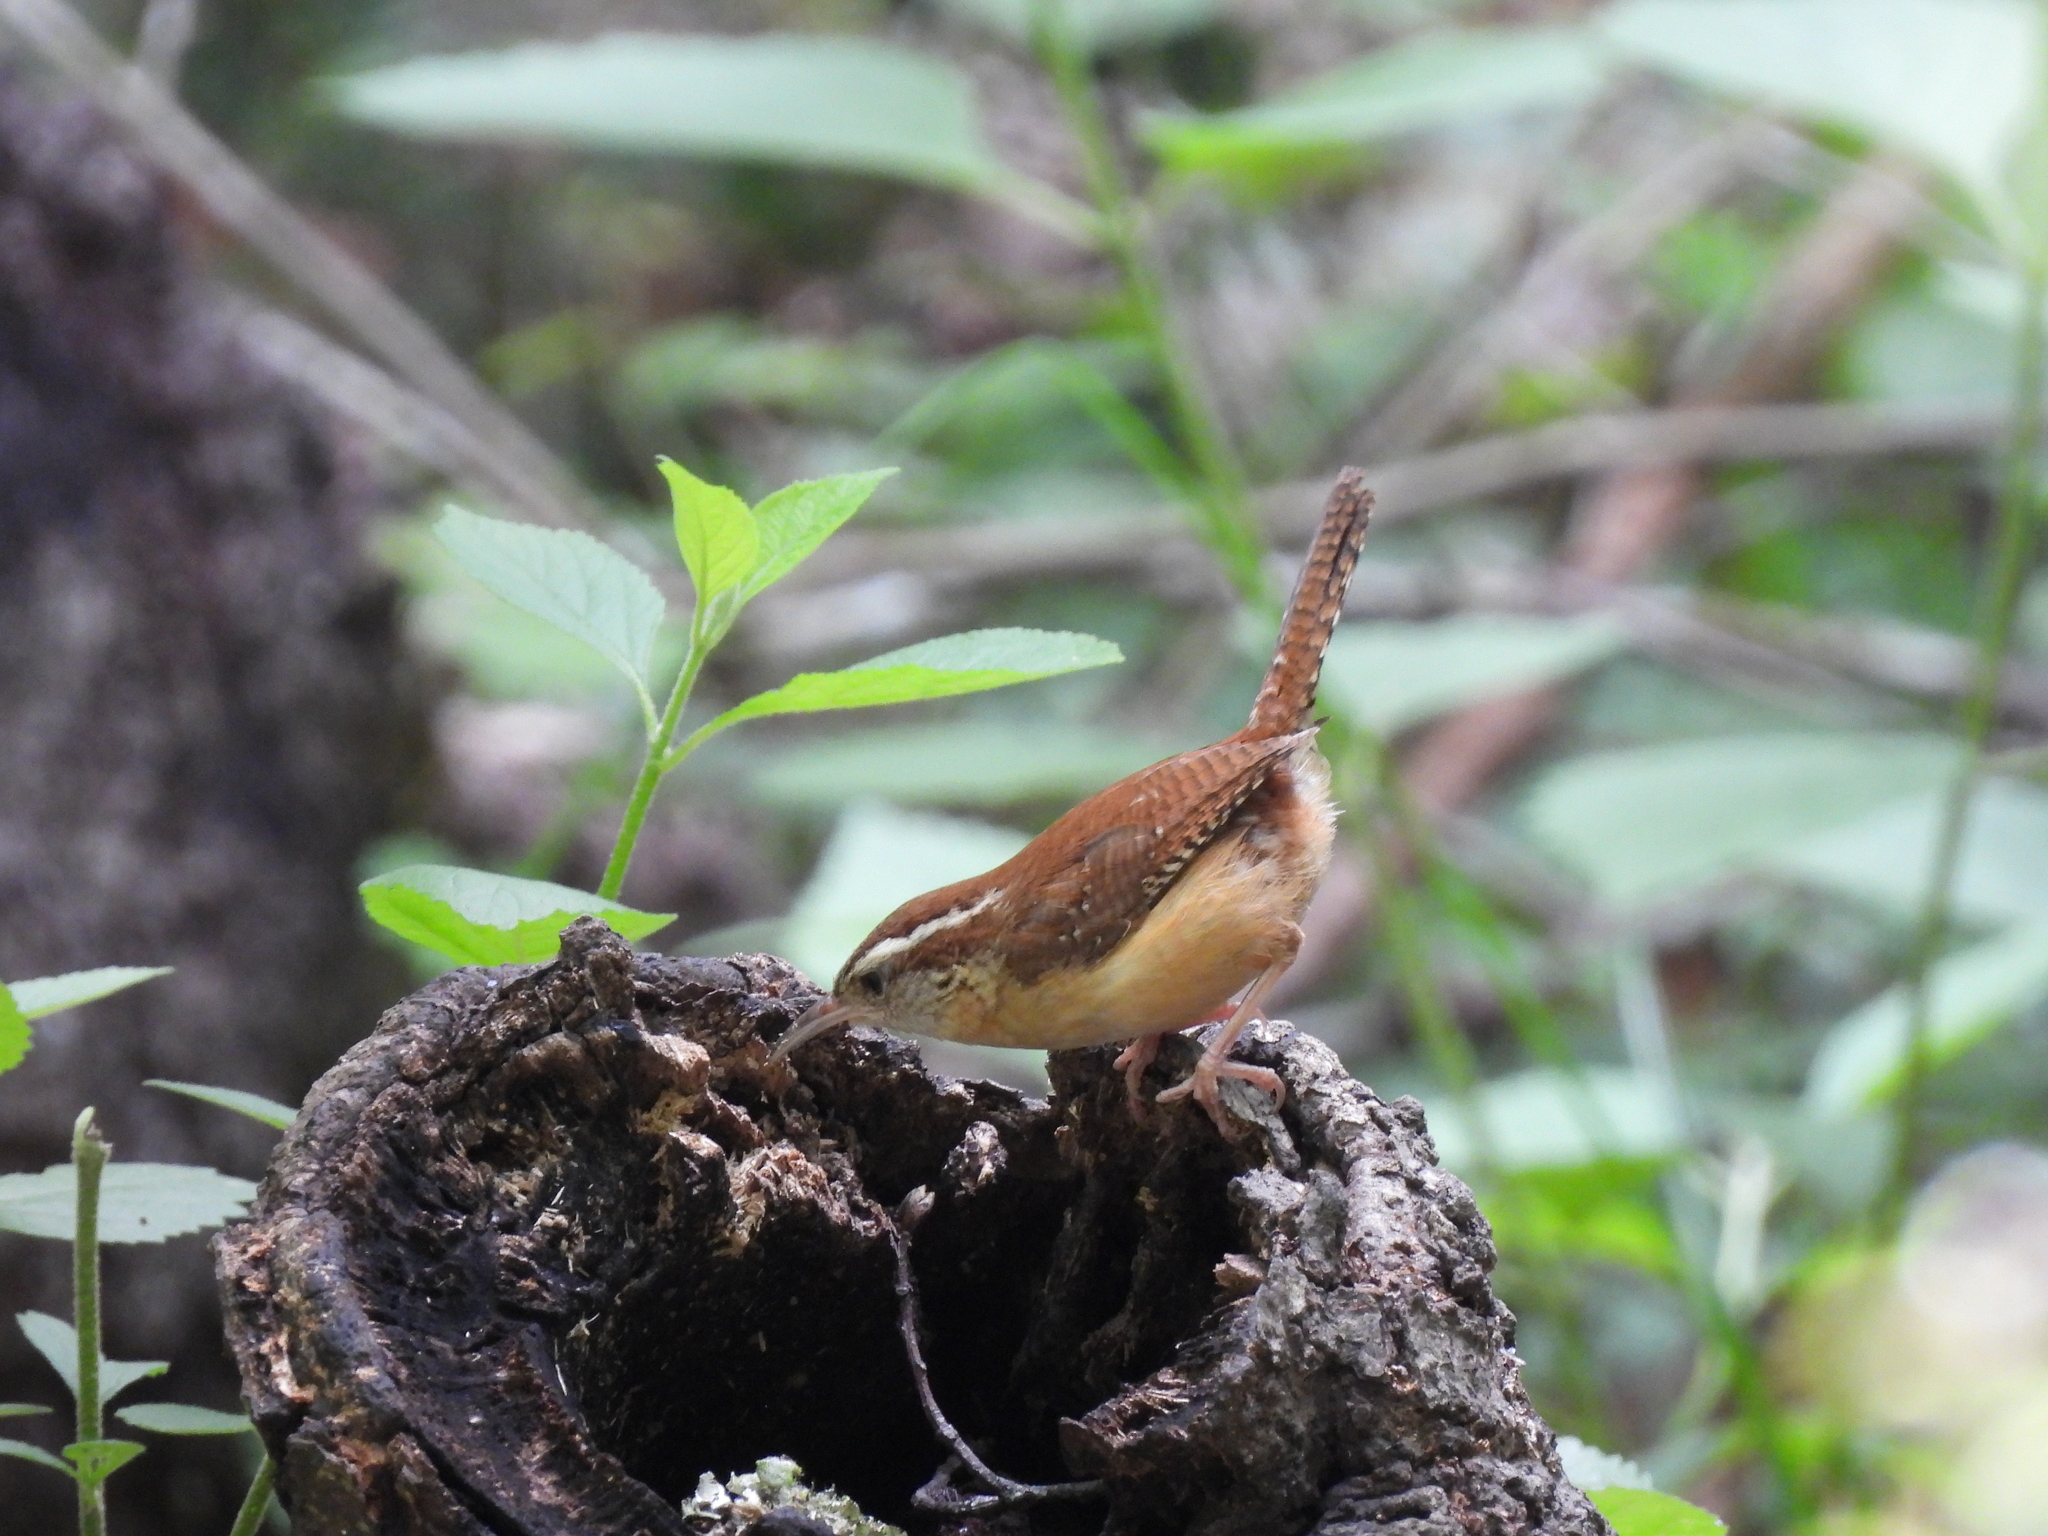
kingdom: Animalia
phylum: Chordata
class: Aves
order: Passeriformes
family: Troglodytidae
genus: Thryothorus
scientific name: Thryothorus ludovicianus
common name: Carolina wren
